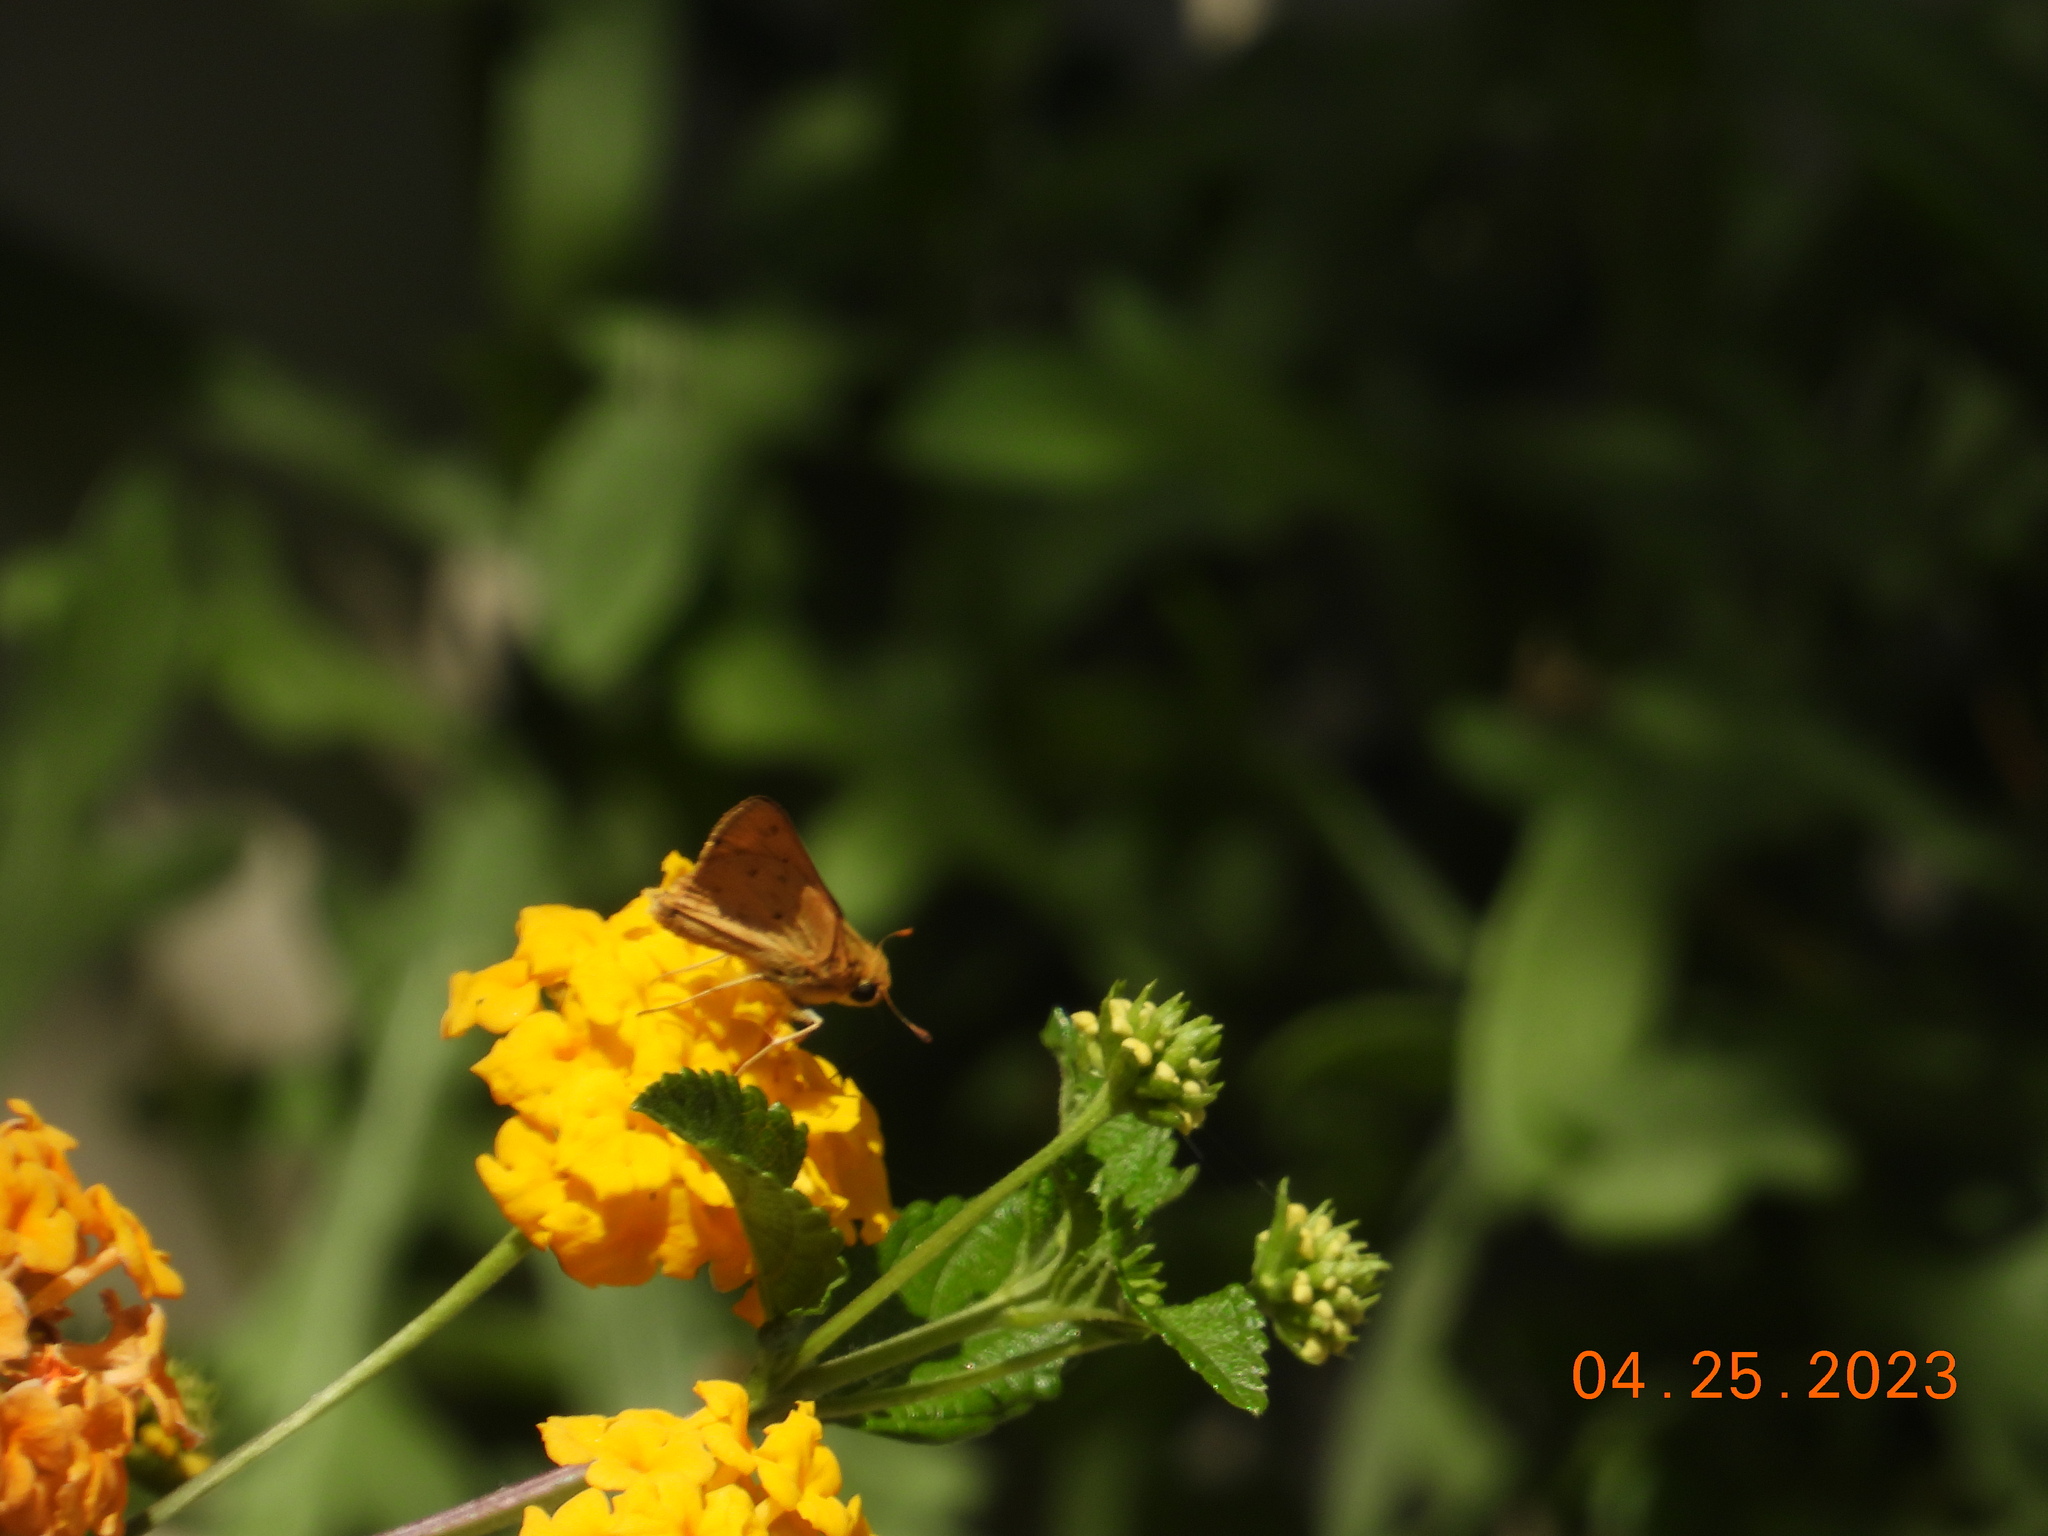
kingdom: Animalia
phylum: Arthropoda
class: Insecta
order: Lepidoptera
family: Hesperiidae
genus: Hylephila
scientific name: Hylephila phyleus
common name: Fiery skipper
